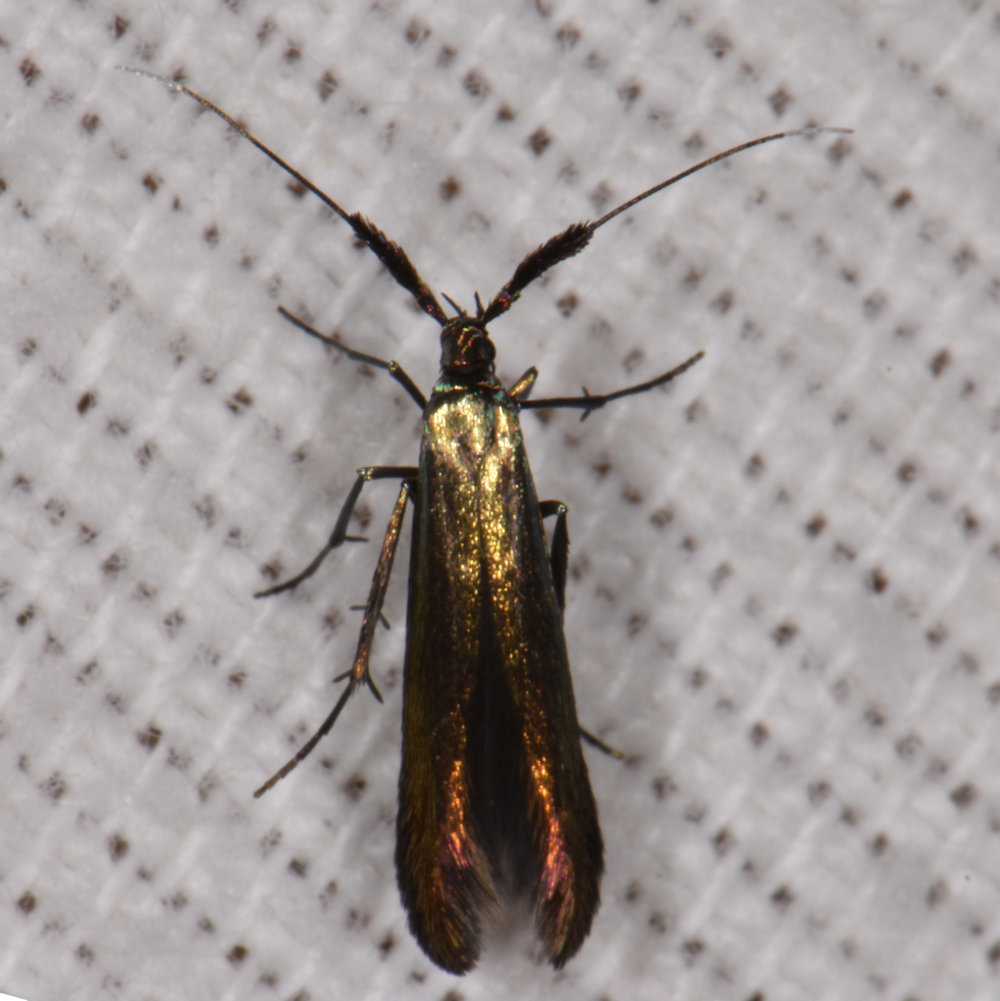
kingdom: Animalia
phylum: Arthropoda
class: Insecta
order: Lepidoptera
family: Coleophoridae
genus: Coleophora
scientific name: Coleophora mayrella
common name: Meadow case-bearer
